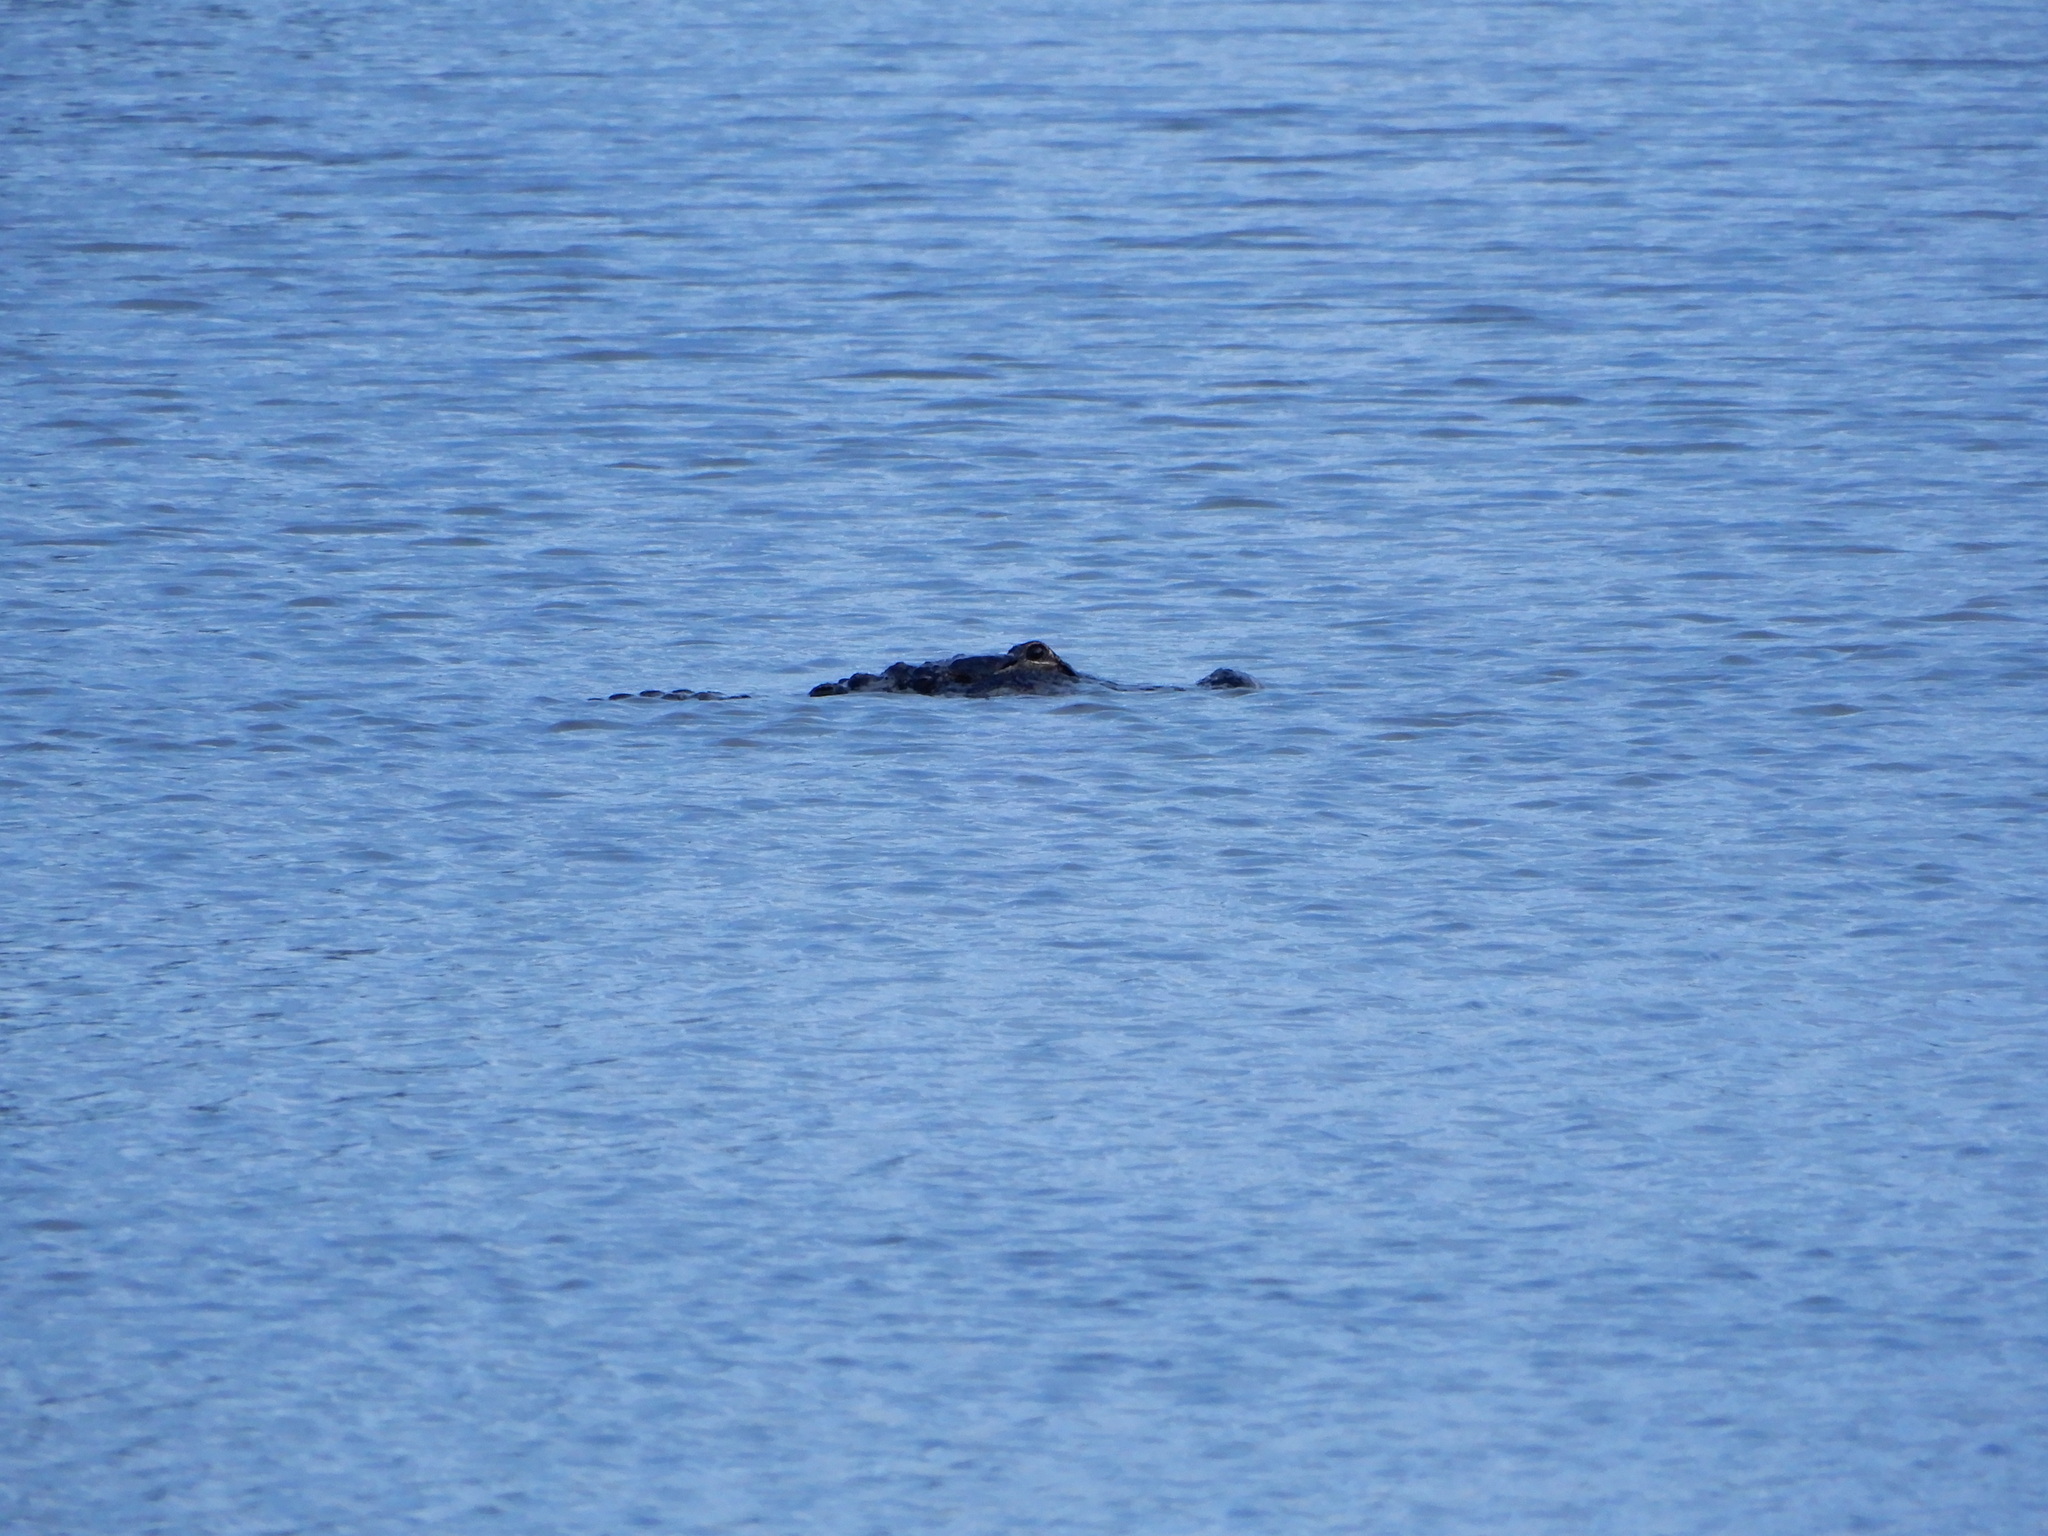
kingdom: Animalia
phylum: Chordata
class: Crocodylia
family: Alligatoridae
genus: Alligator
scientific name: Alligator mississippiensis
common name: American alligator
